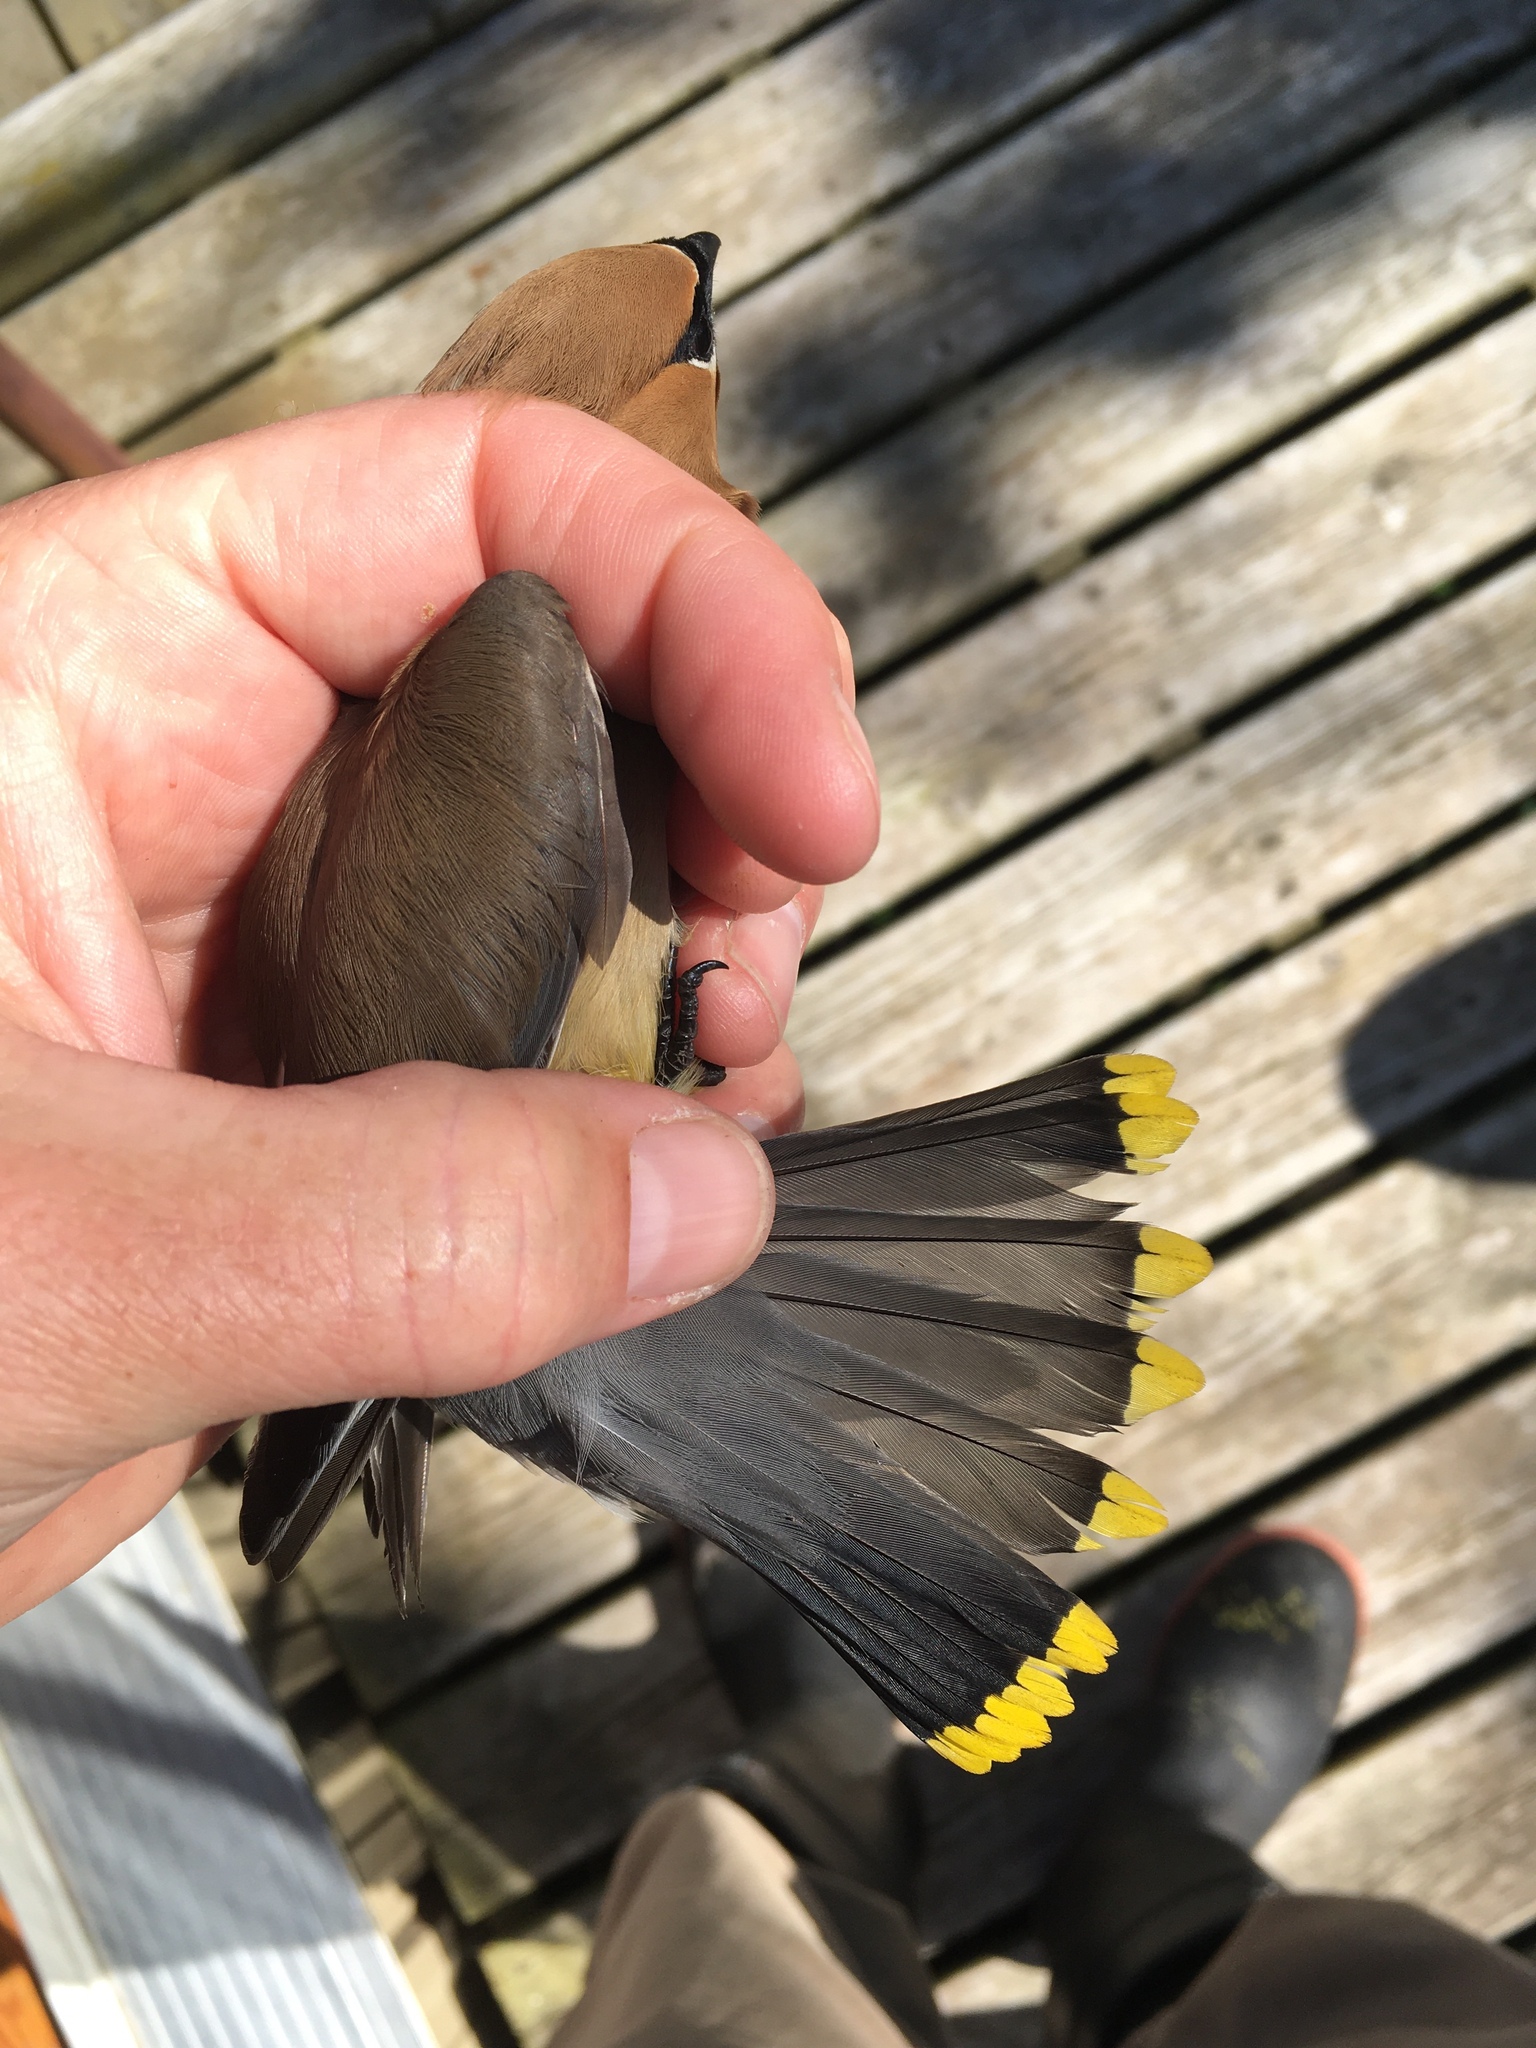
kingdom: Animalia
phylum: Chordata
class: Aves
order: Passeriformes
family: Bombycillidae
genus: Bombycilla
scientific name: Bombycilla cedrorum
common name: Cedar waxwing
